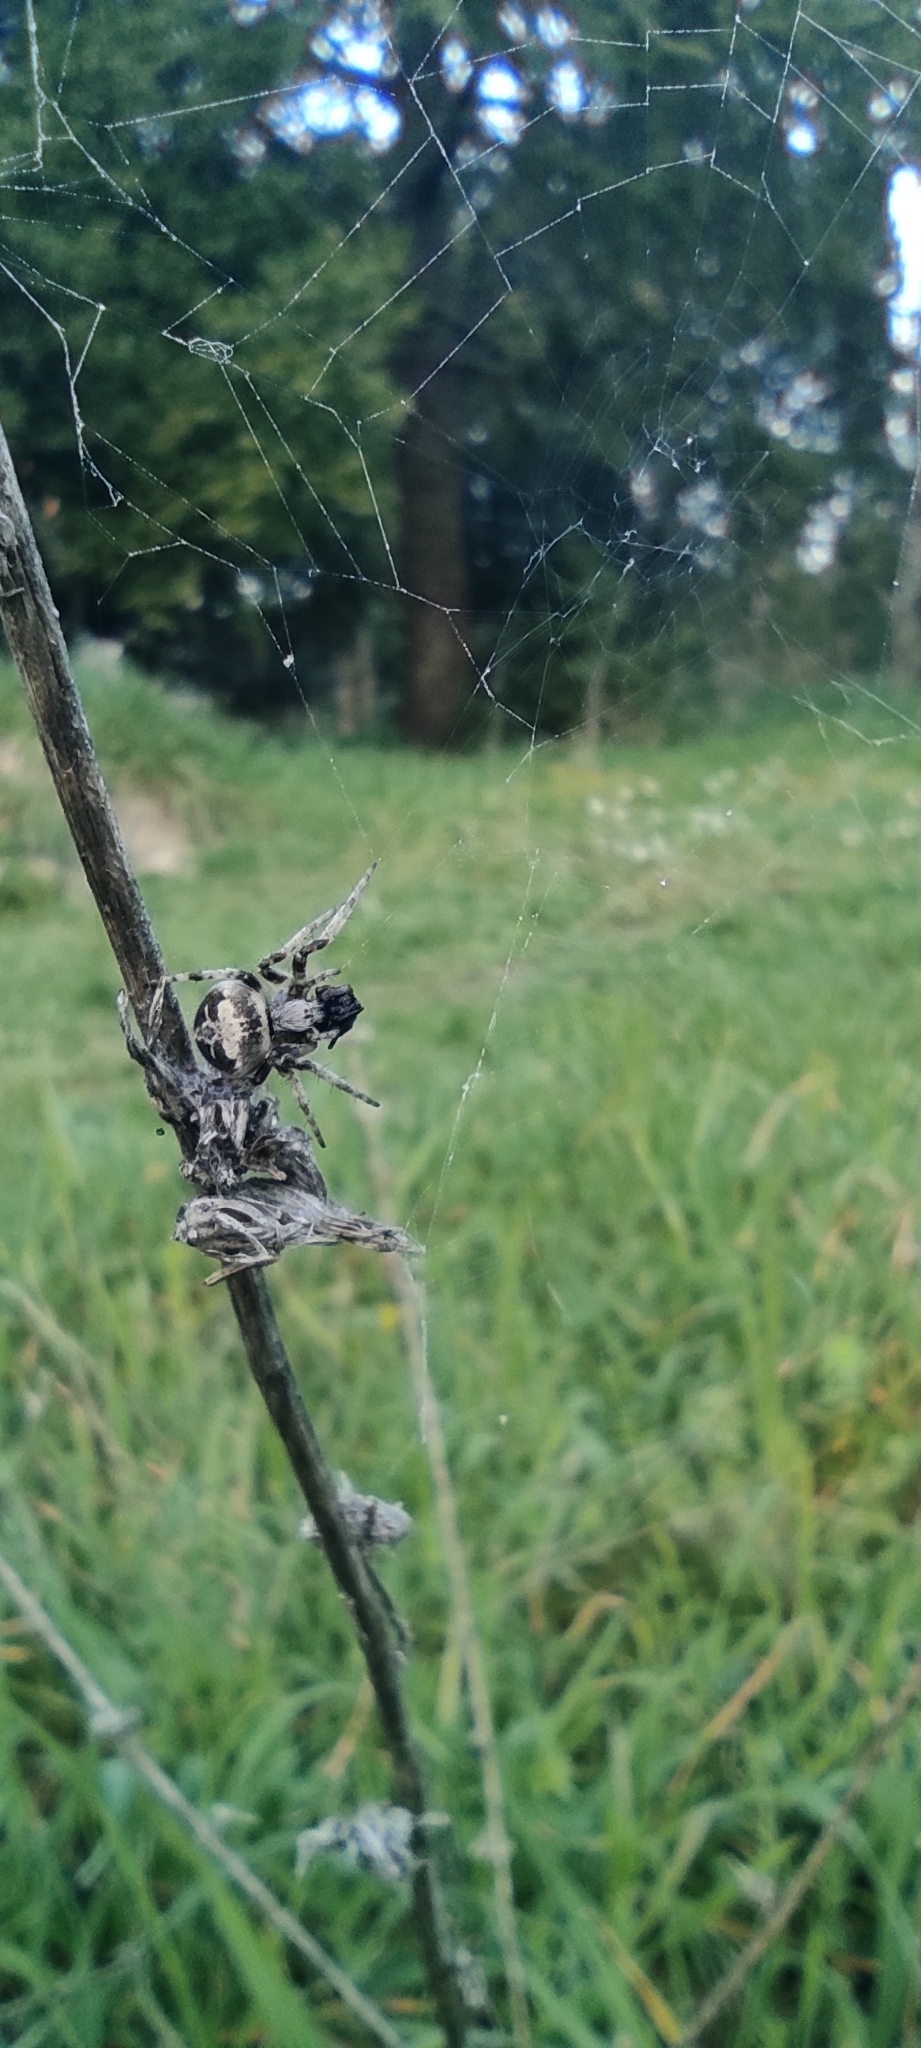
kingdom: Animalia
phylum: Arthropoda
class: Arachnida
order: Araneae
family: Araneidae
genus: Agalenatea
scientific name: Agalenatea redii
